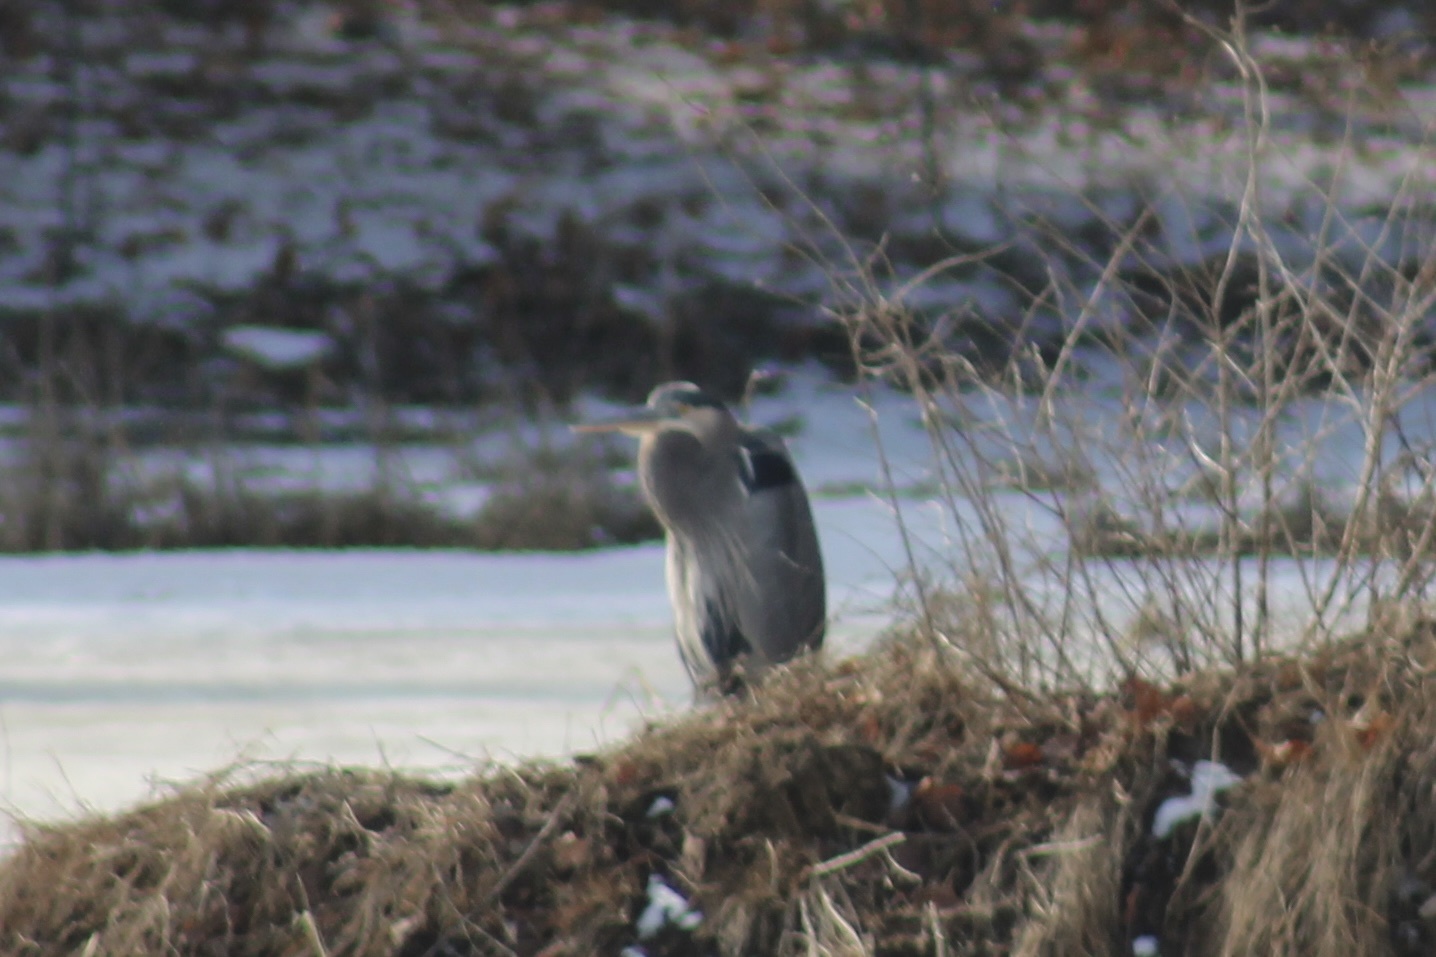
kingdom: Animalia
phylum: Chordata
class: Aves
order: Pelecaniformes
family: Ardeidae
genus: Ardea
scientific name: Ardea herodias
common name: Great blue heron
